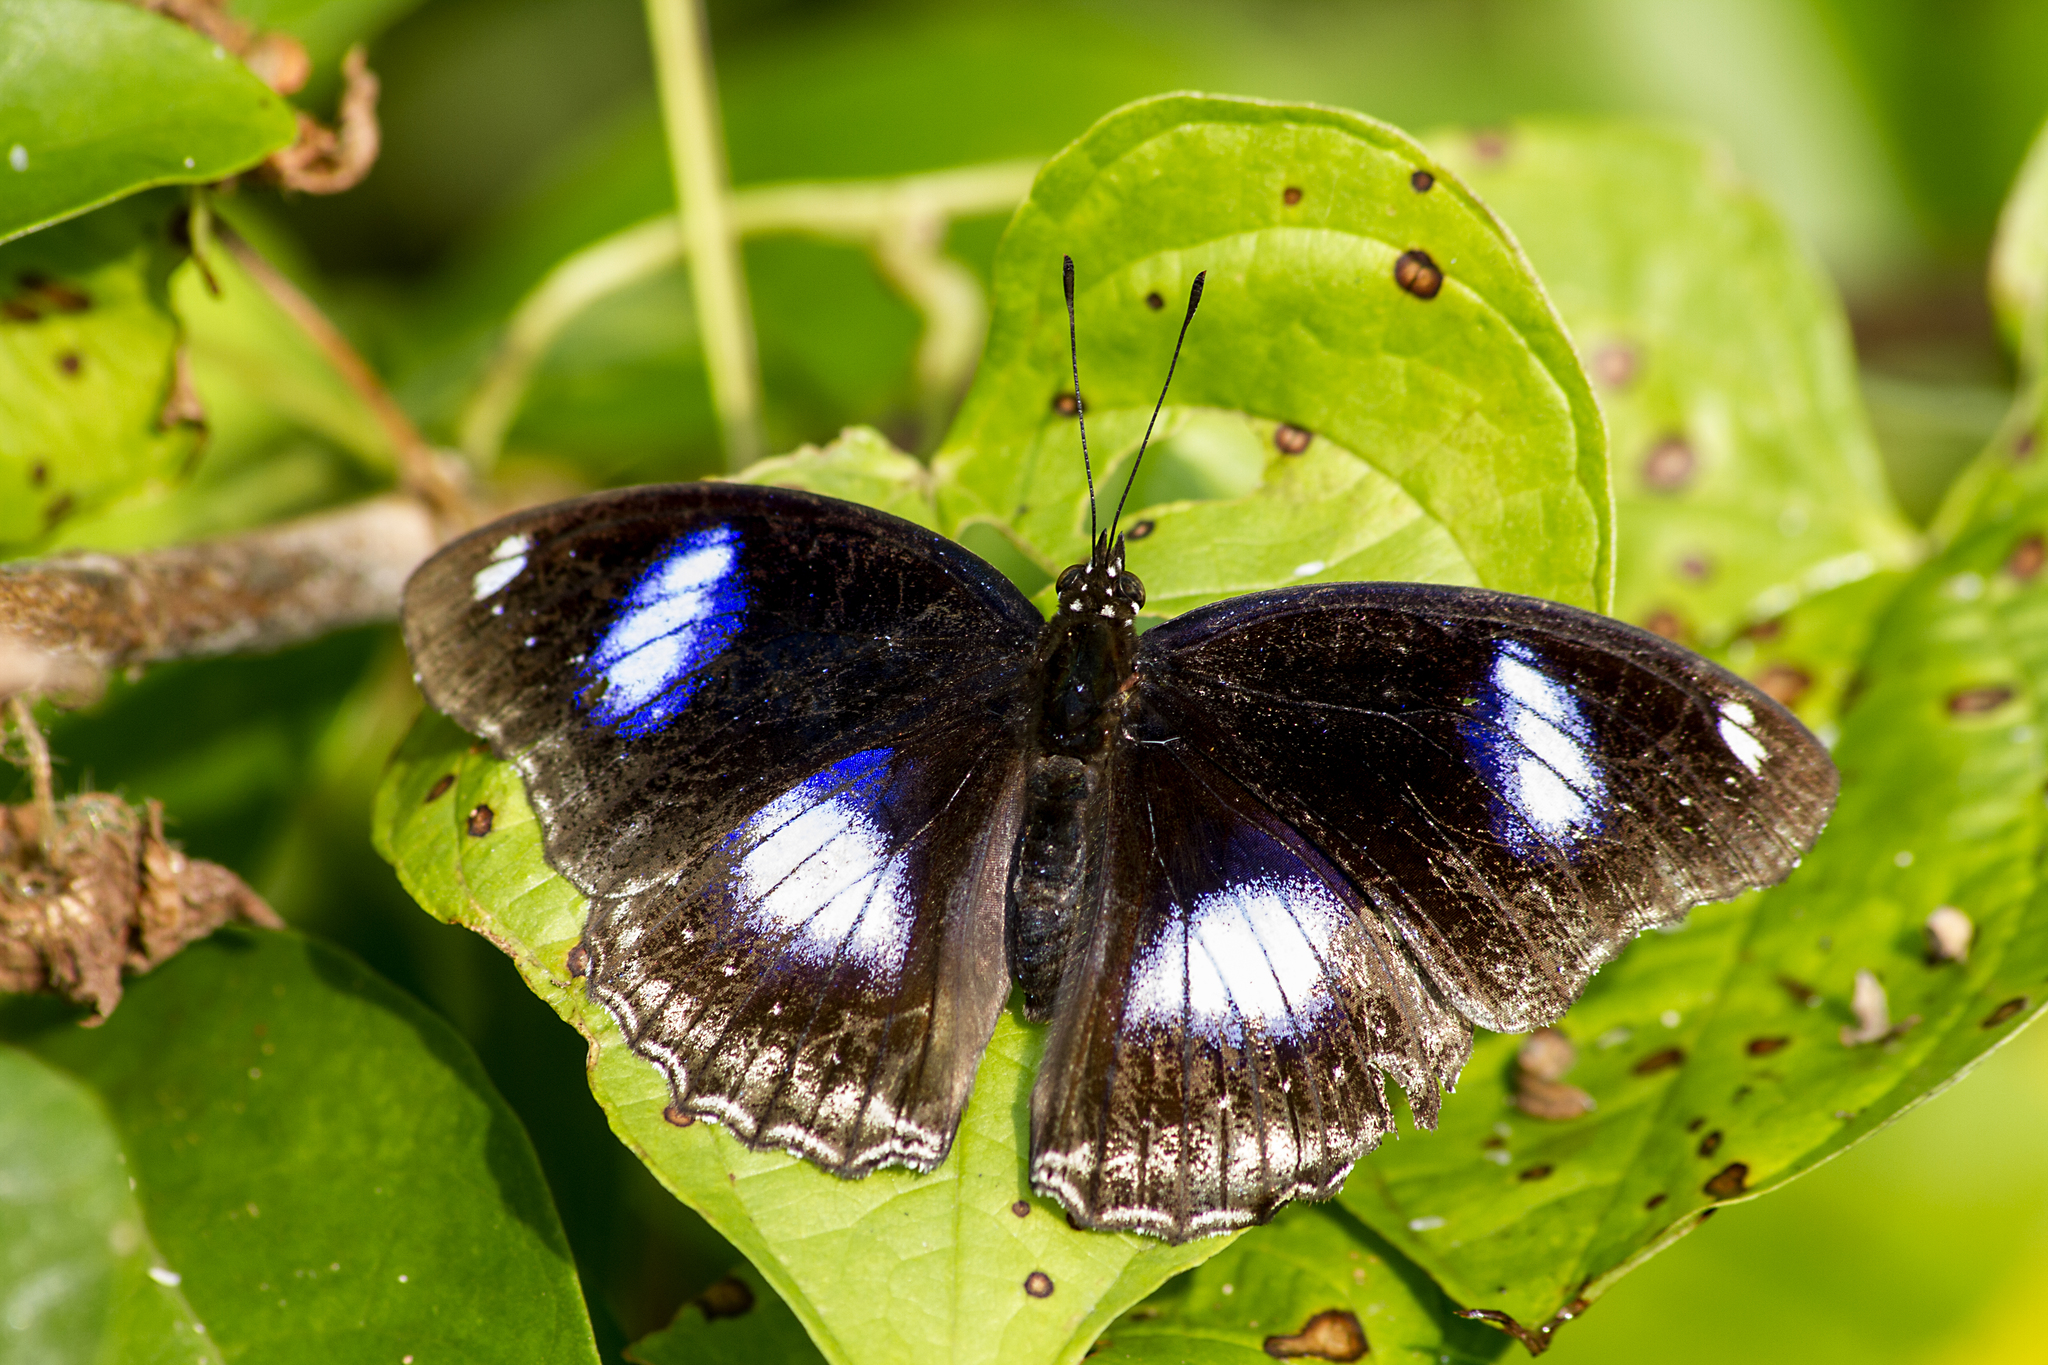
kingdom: Animalia
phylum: Arthropoda
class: Insecta
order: Lepidoptera
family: Nymphalidae
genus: Hypolimnas
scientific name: Hypolimnas bolina
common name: Great eggfly
